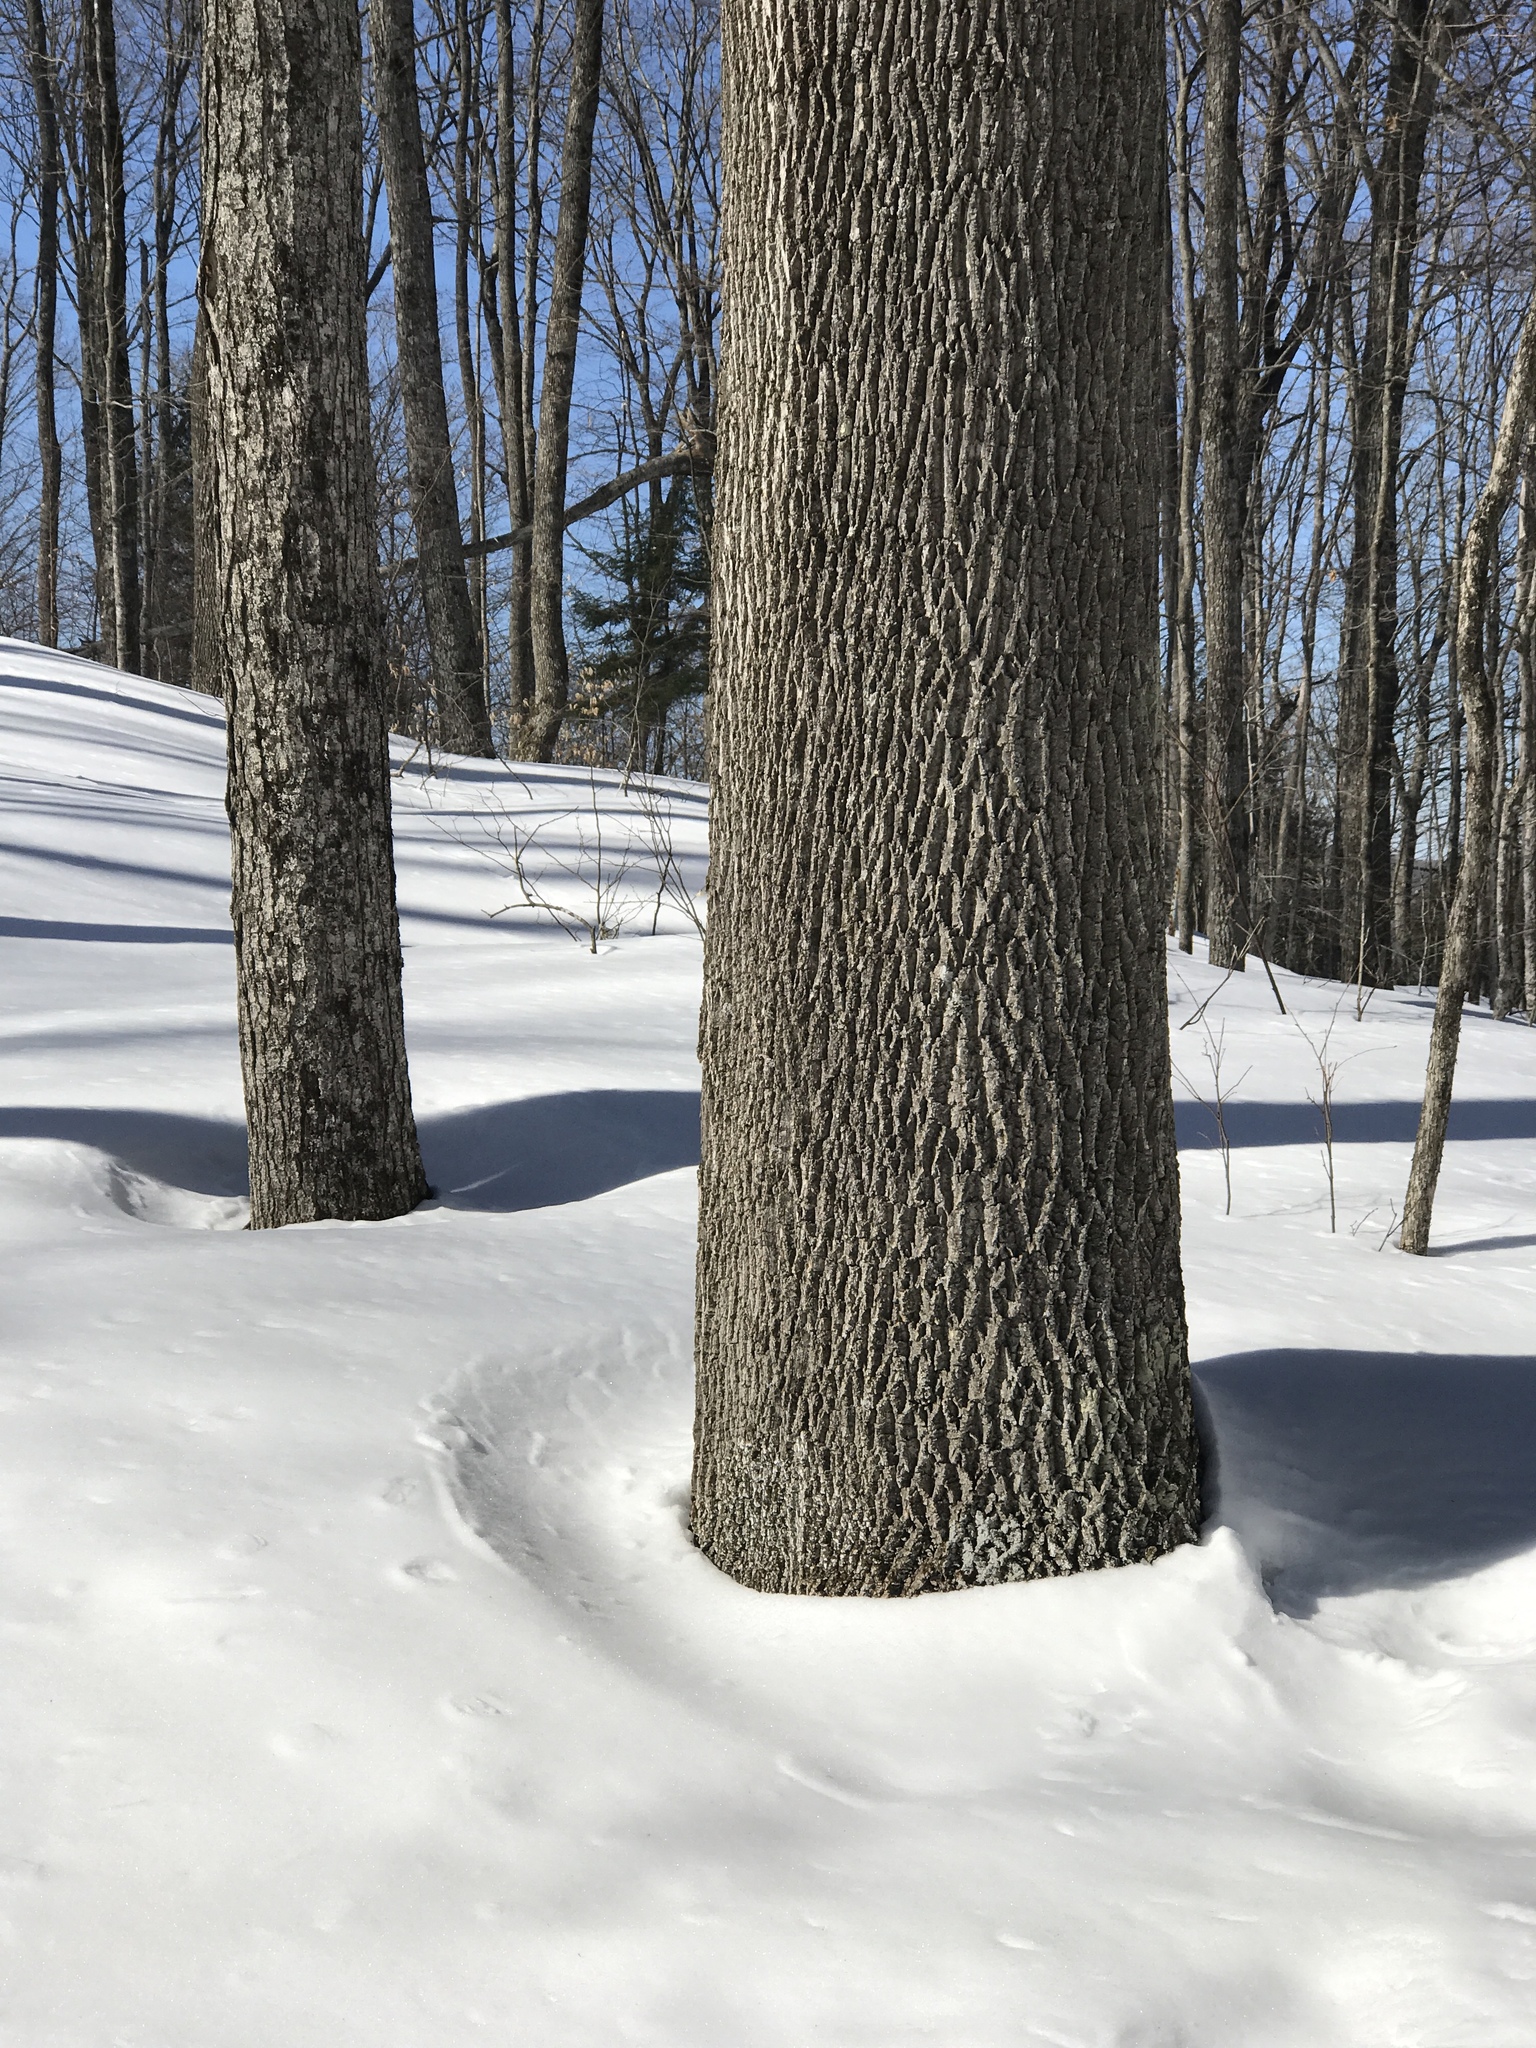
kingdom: Plantae
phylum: Tracheophyta
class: Magnoliopsida
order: Lamiales
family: Oleaceae
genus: Fraxinus
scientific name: Fraxinus americana
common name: White ash
